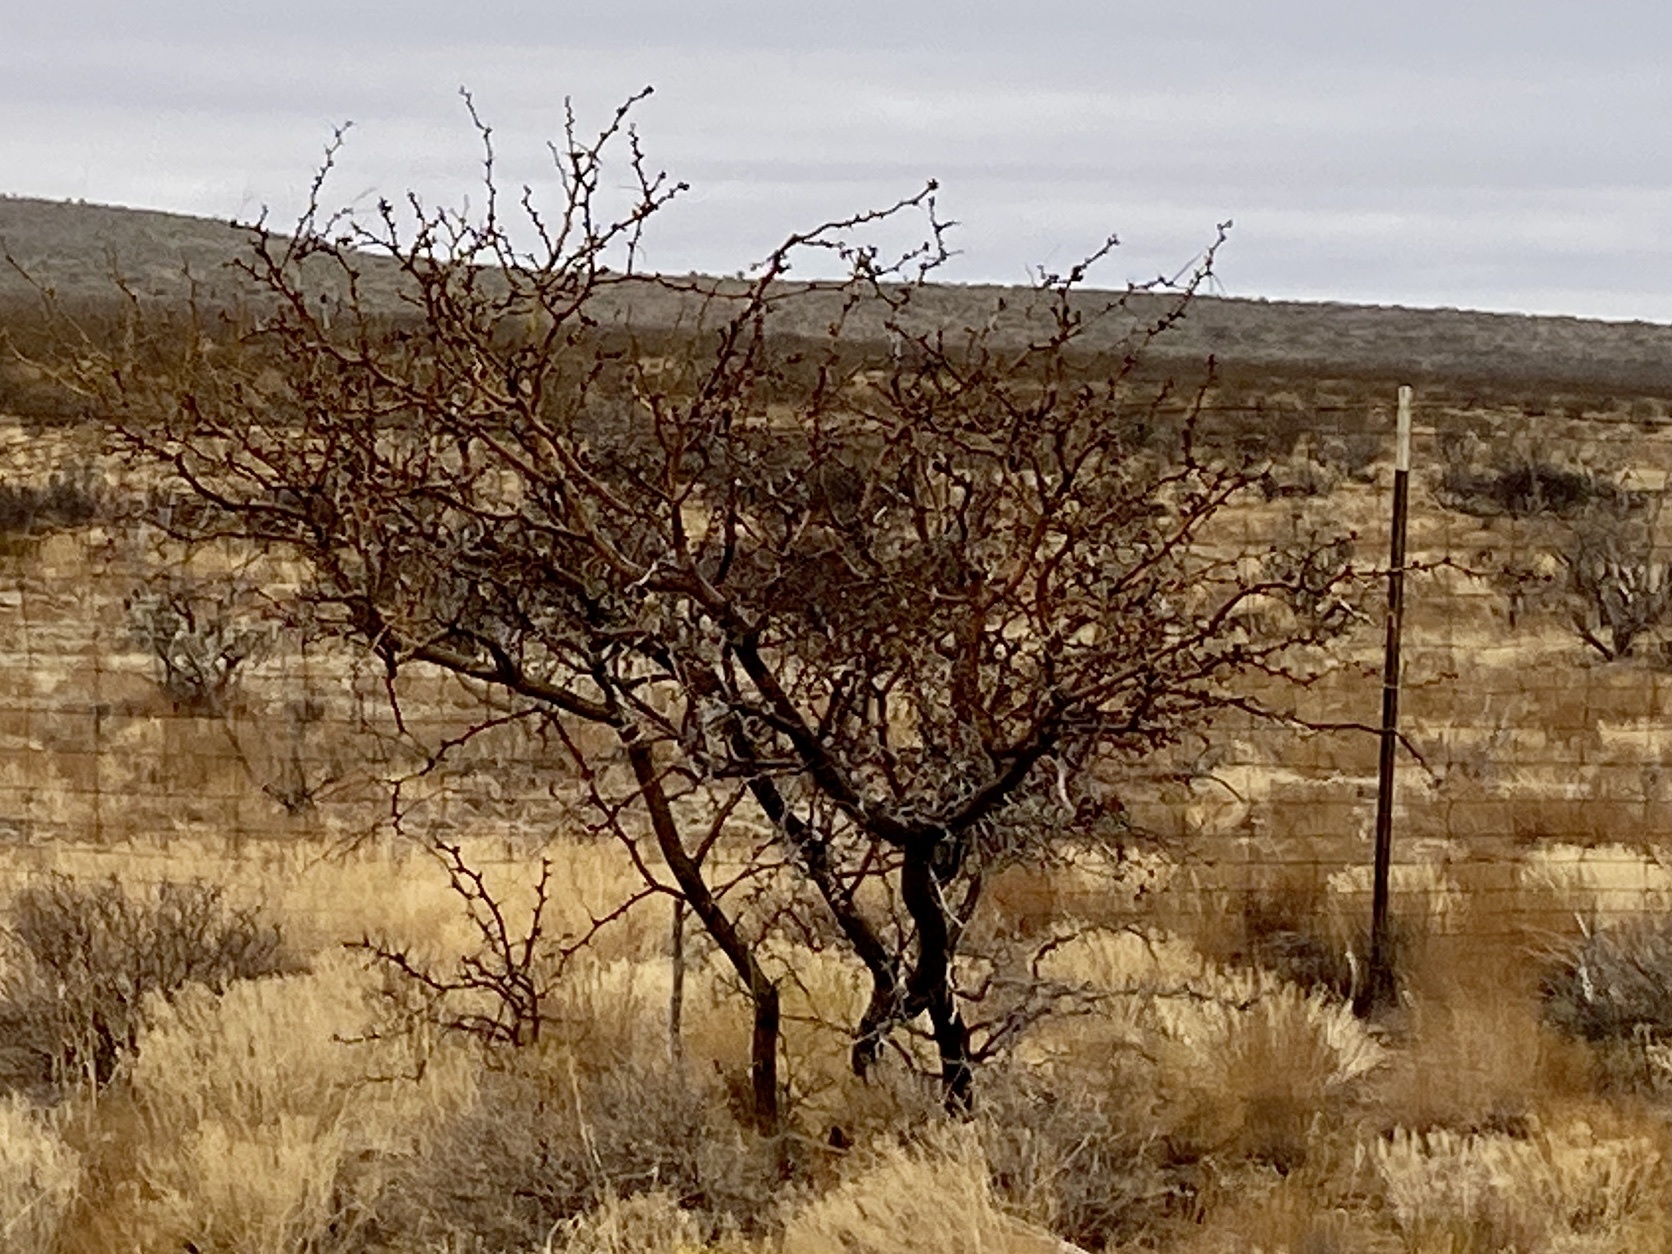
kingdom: Plantae
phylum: Tracheophyta
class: Magnoliopsida
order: Fabales
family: Fabaceae
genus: Prosopis
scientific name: Prosopis glandulosa
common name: Honey mesquite
